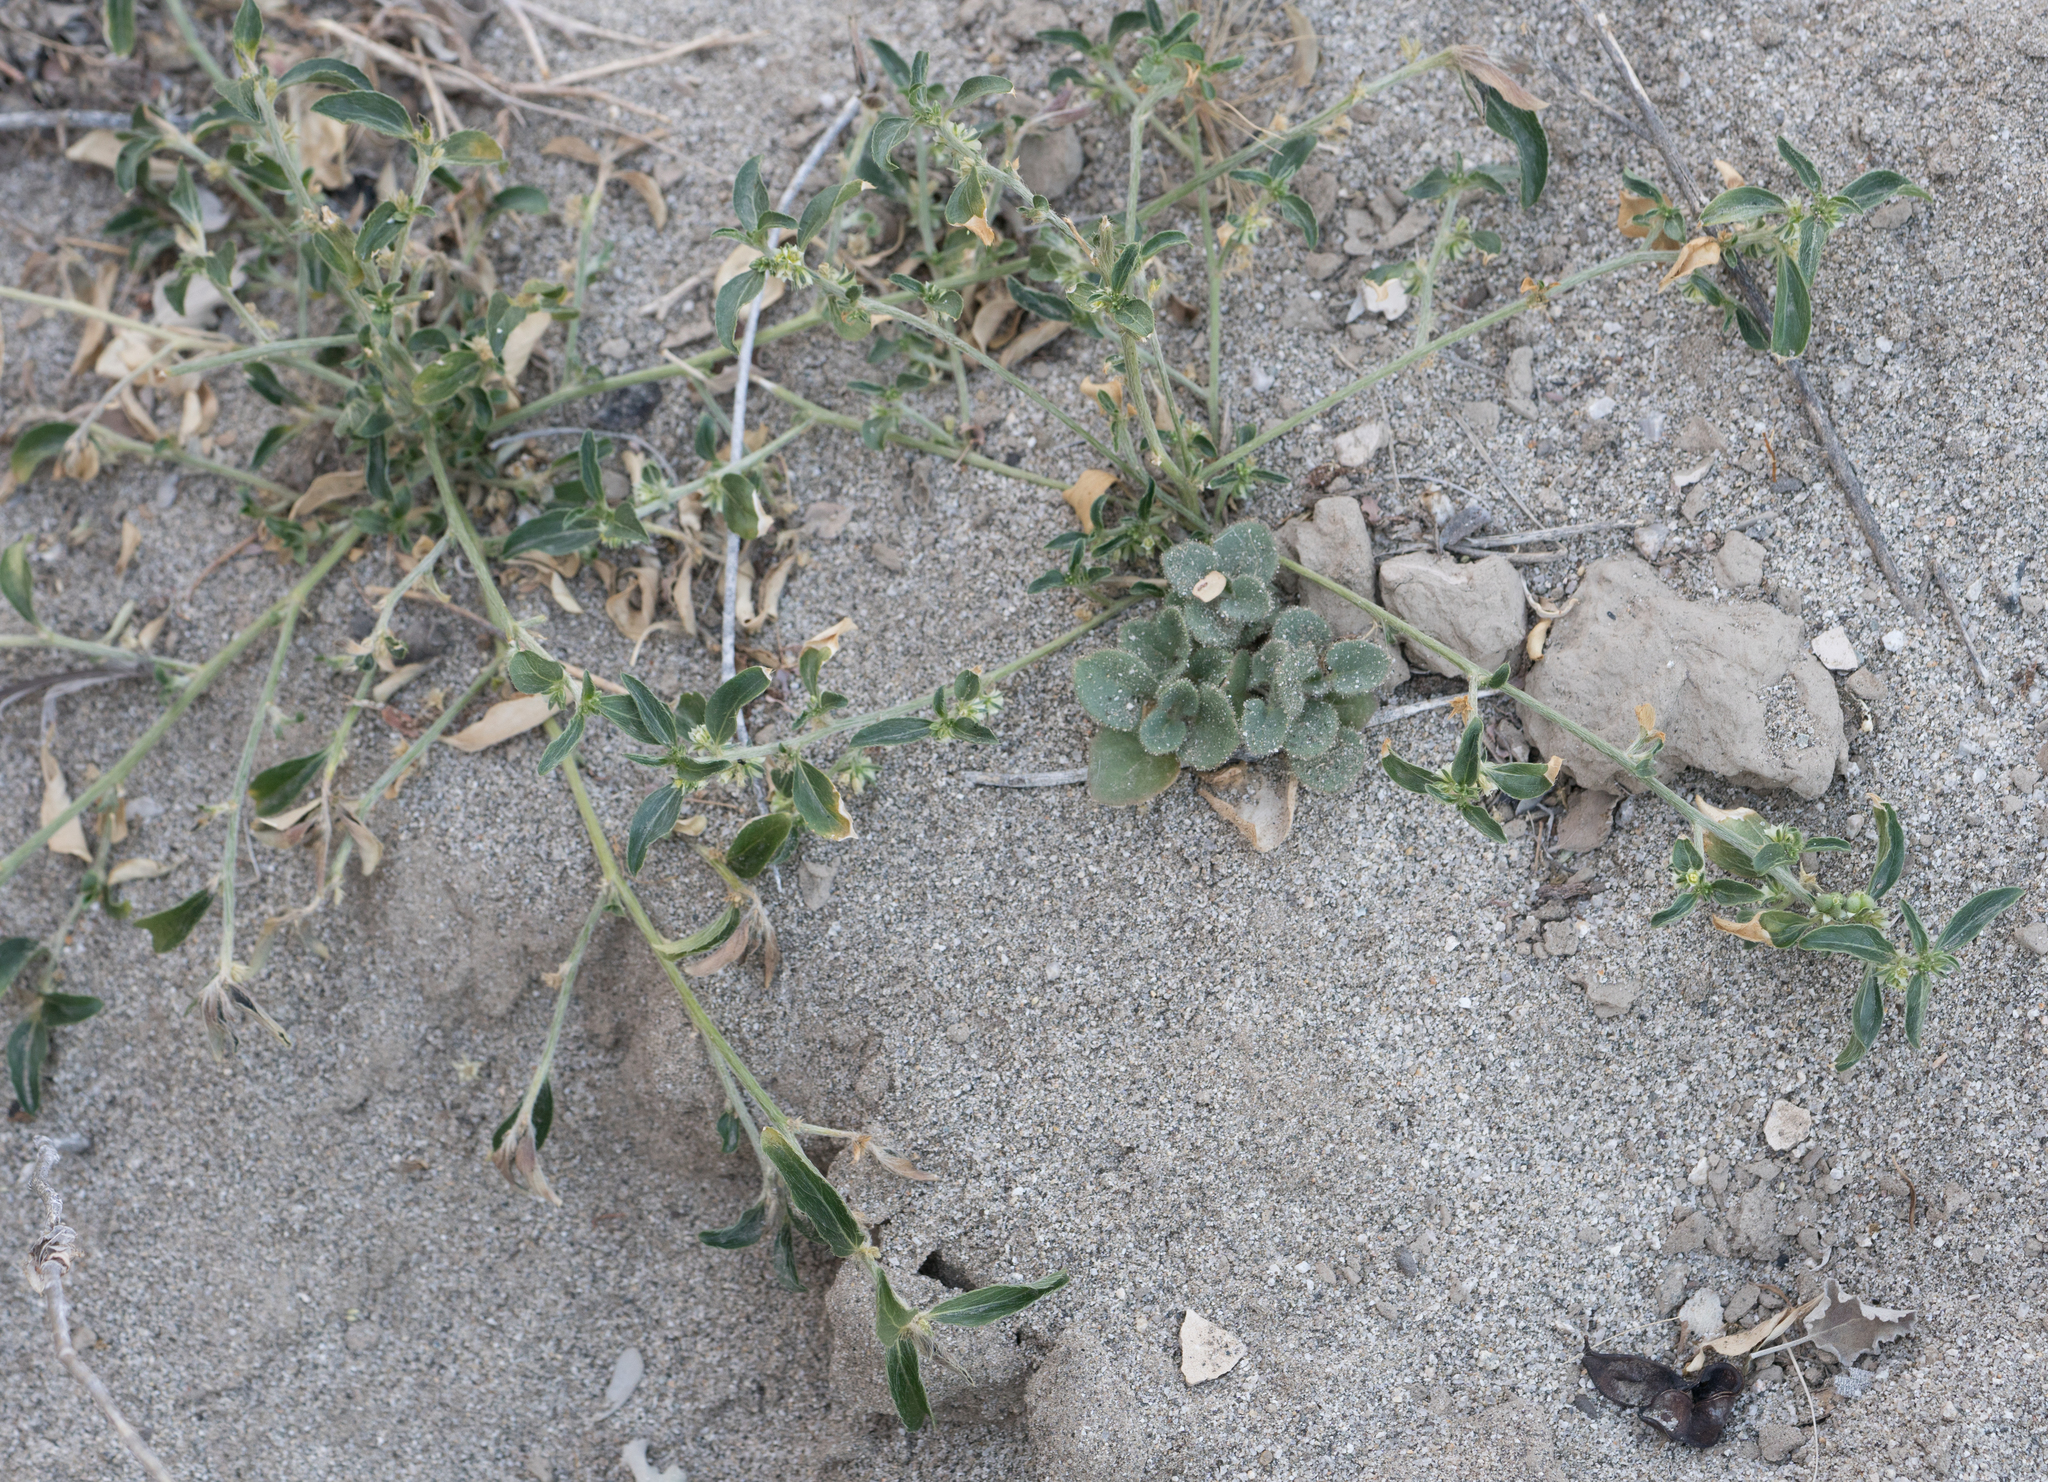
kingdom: Plantae
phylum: Tracheophyta
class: Magnoliopsida
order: Malpighiales
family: Euphorbiaceae
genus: Ditaxis
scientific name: Ditaxis serrata
